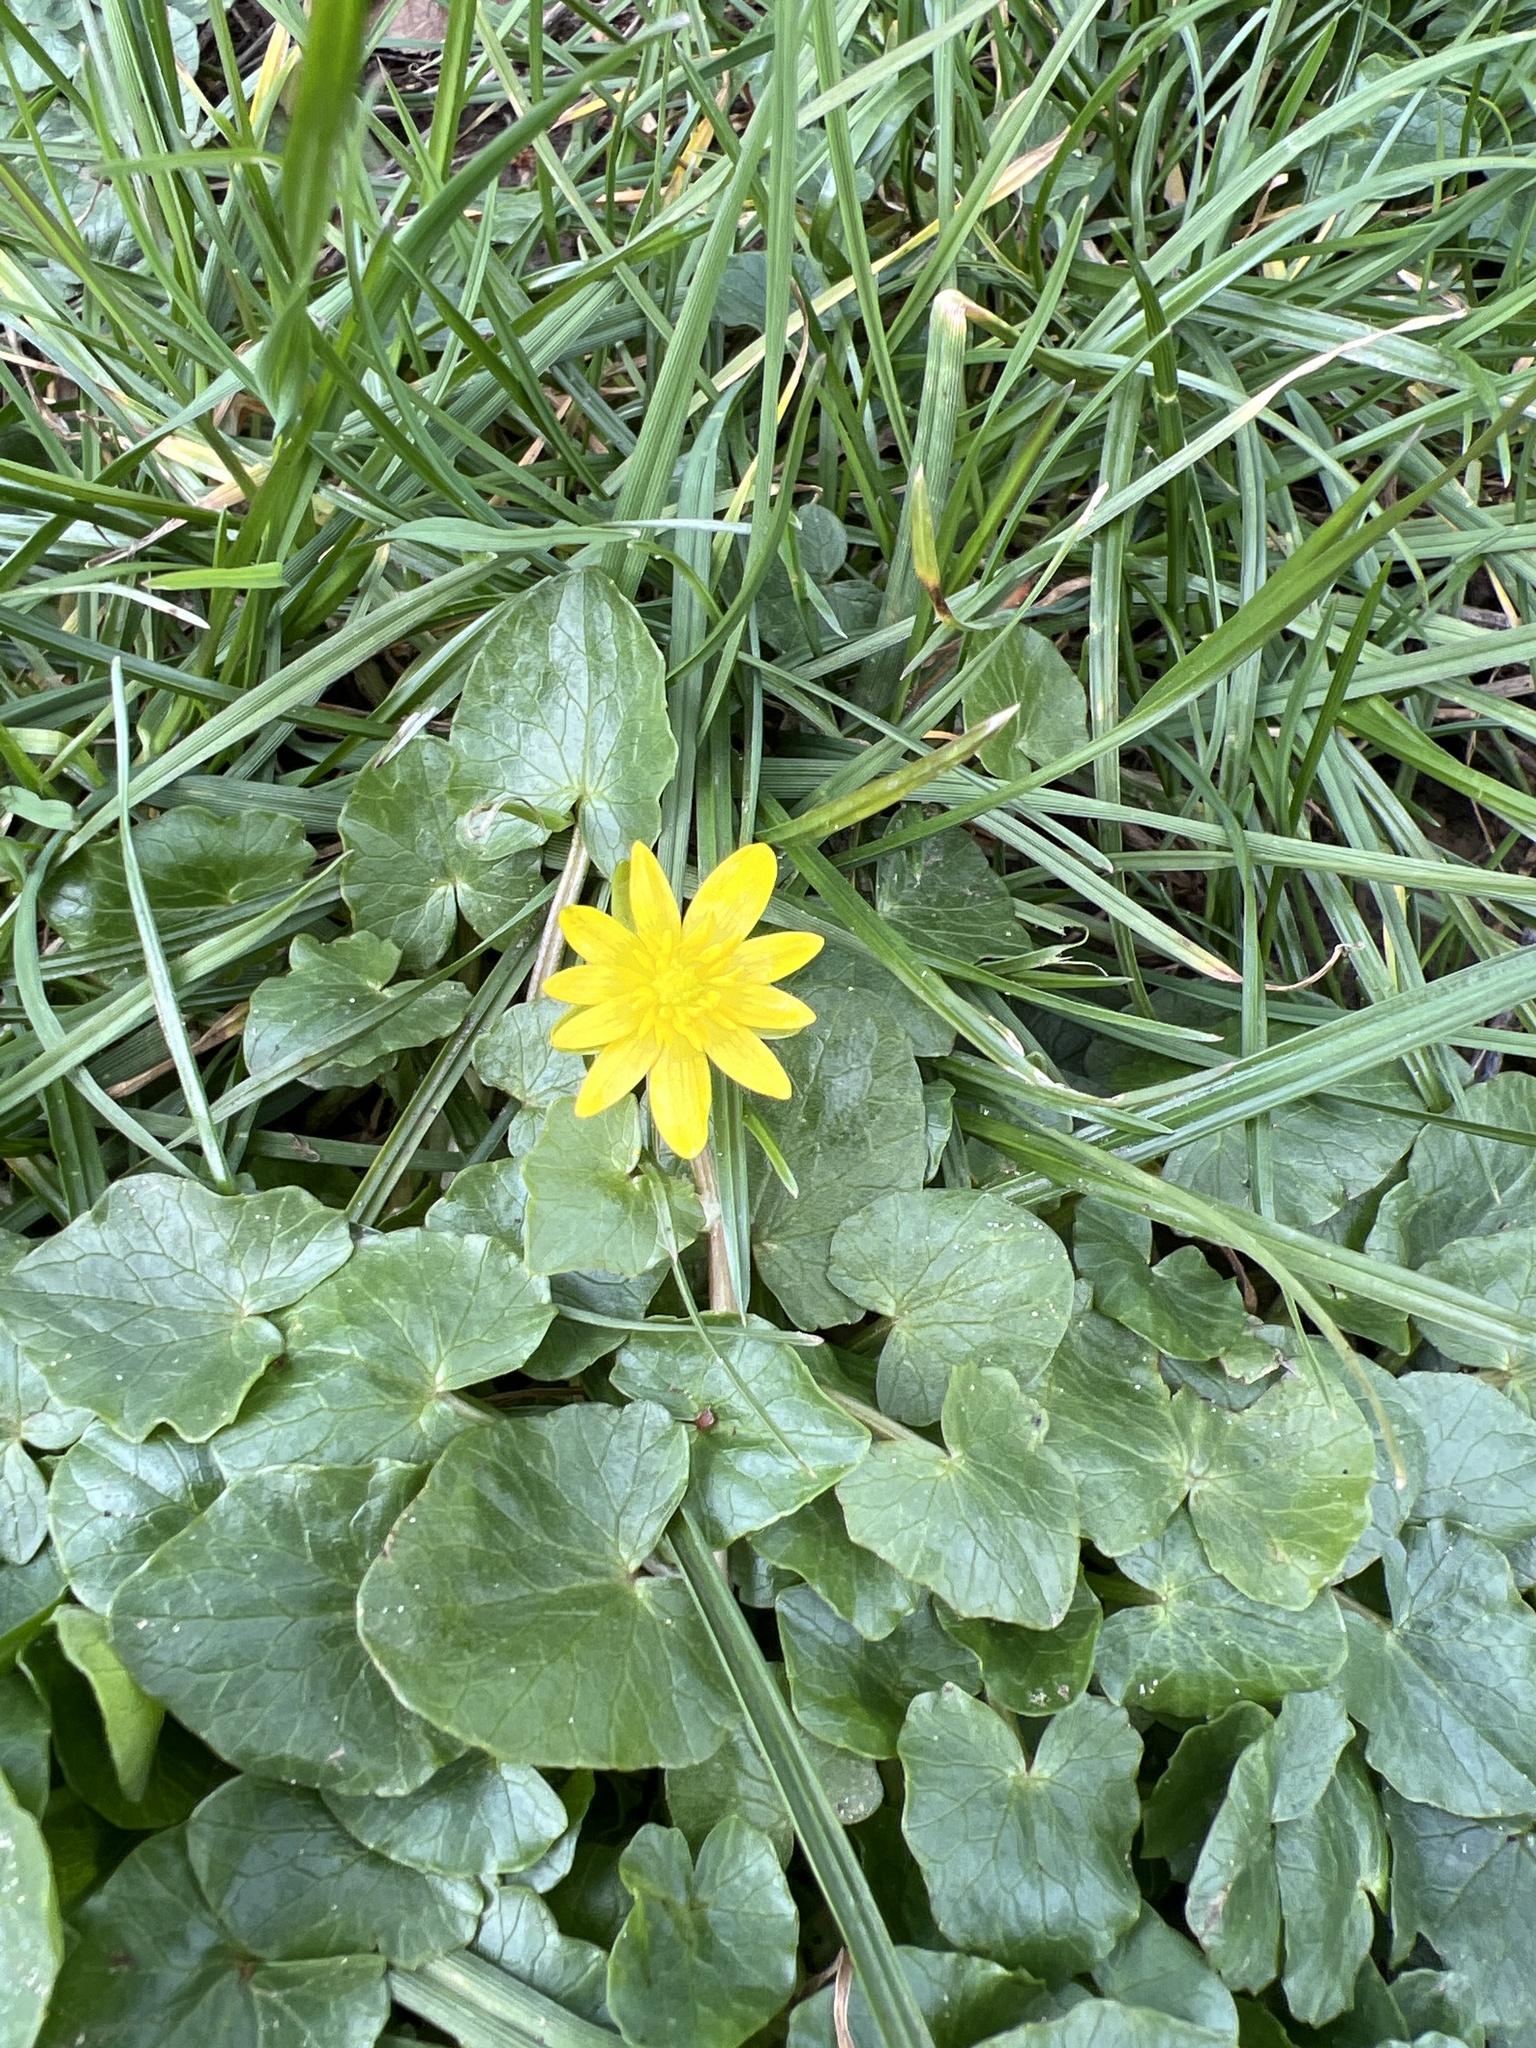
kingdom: Plantae
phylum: Tracheophyta
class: Magnoliopsida
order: Ranunculales
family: Ranunculaceae
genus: Ficaria
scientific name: Ficaria verna
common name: Lesser celandine
